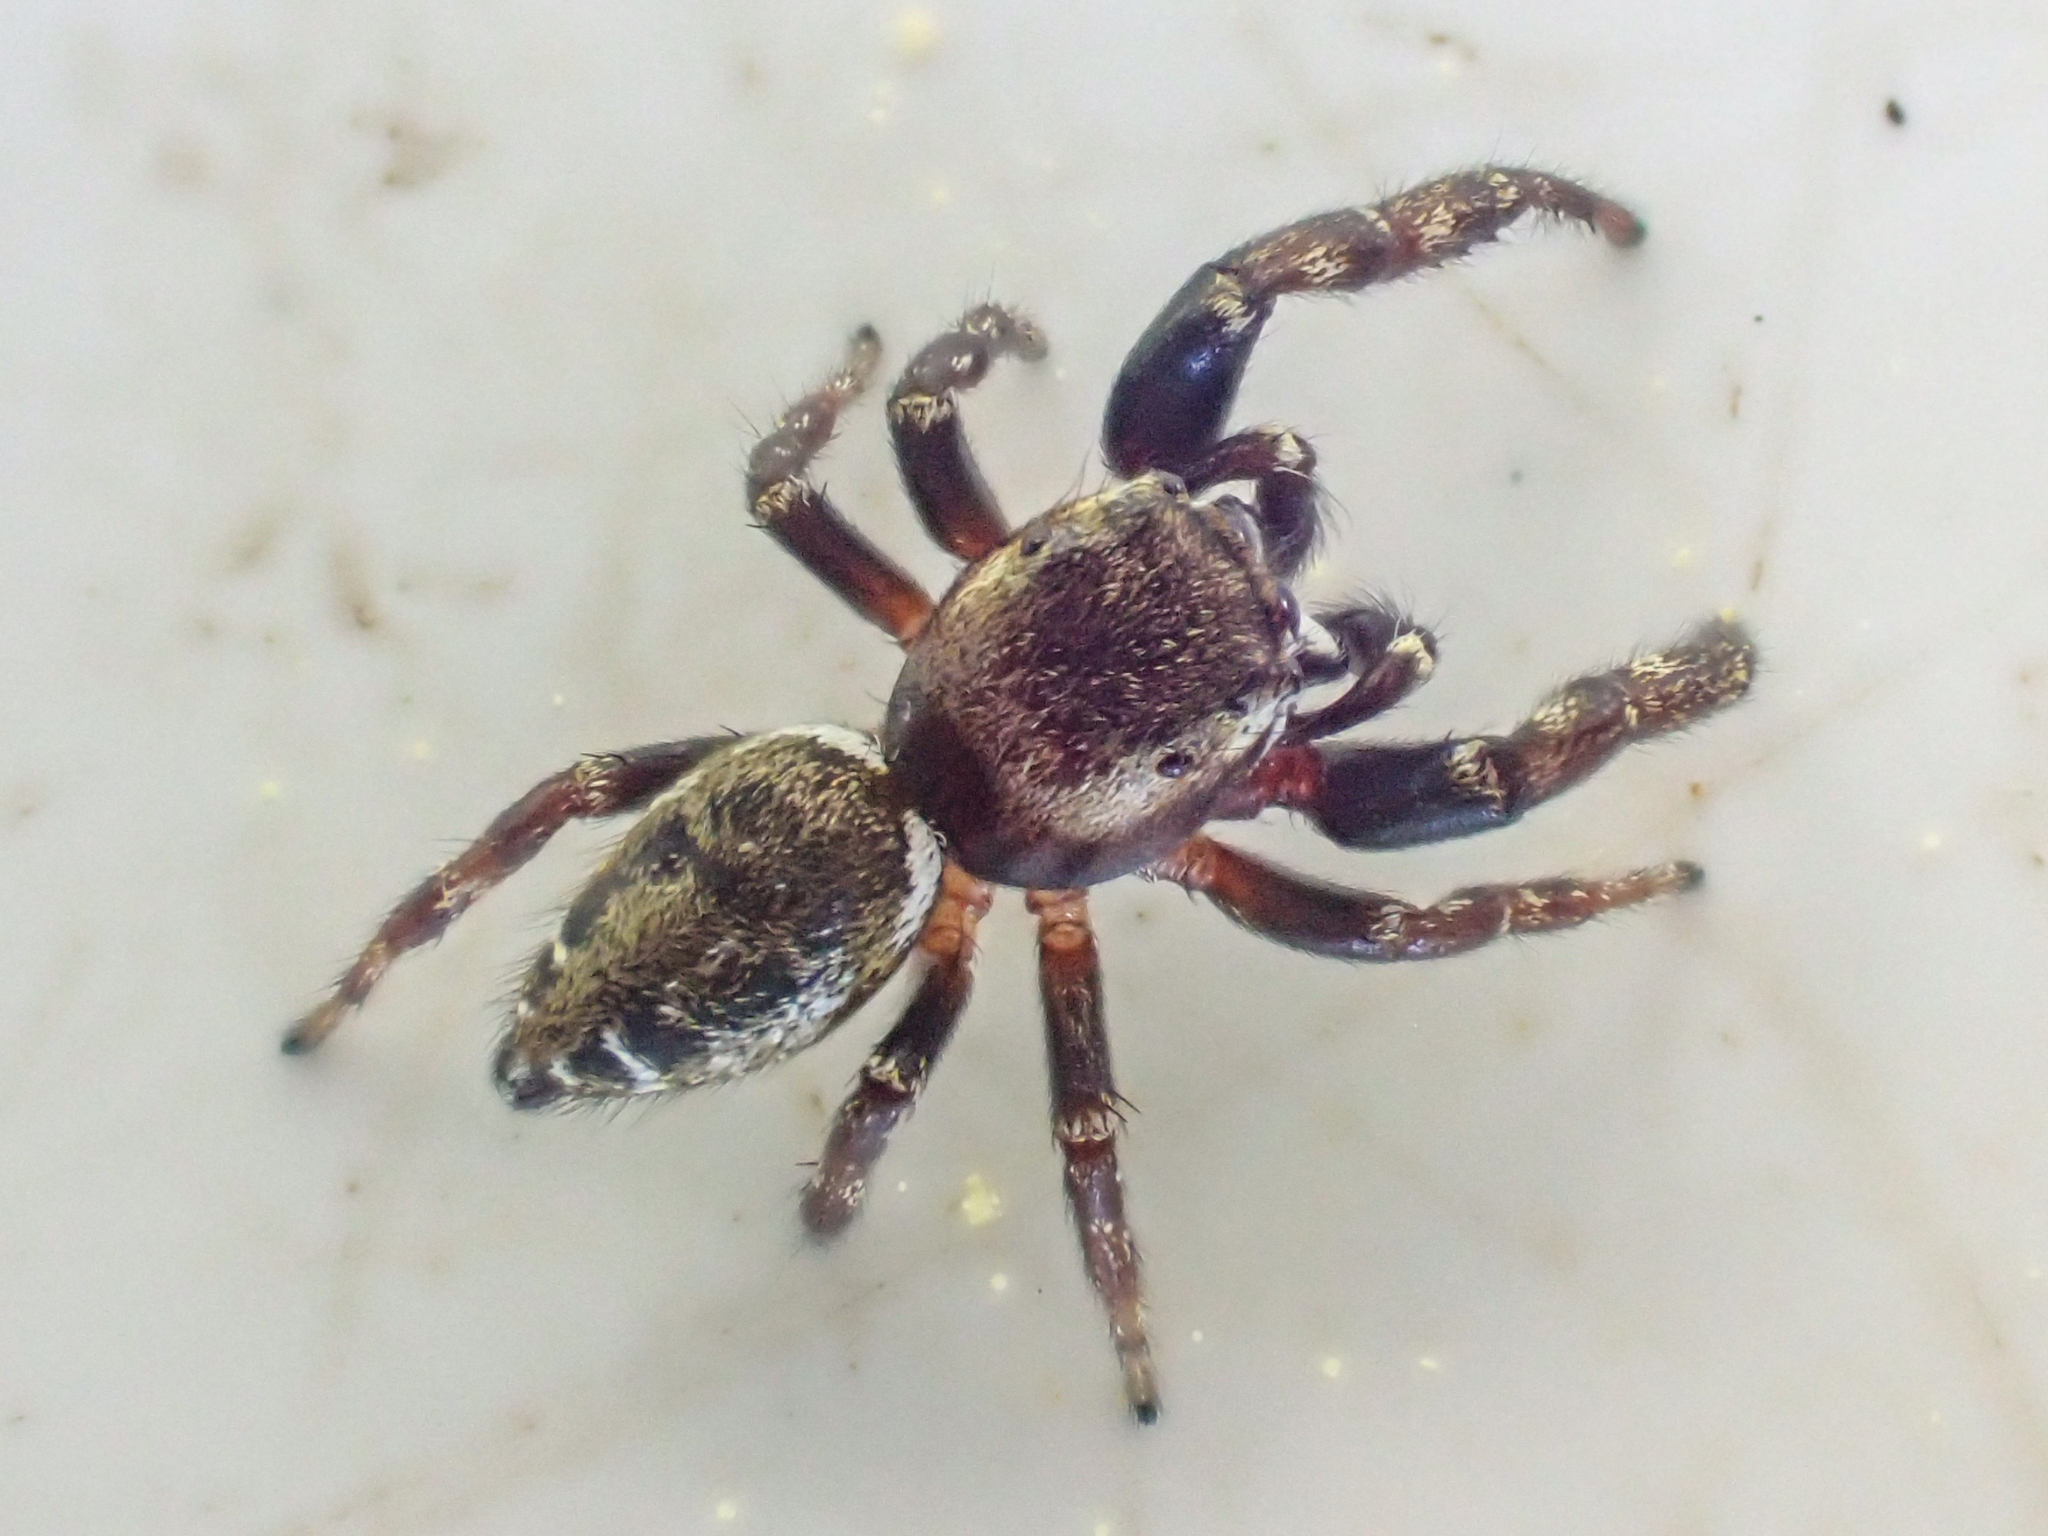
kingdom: Animalia
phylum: Arthropoda
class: Arachnida
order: Araneae
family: Salticidae
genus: Metaphidippus
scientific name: Metaphidippus manni
